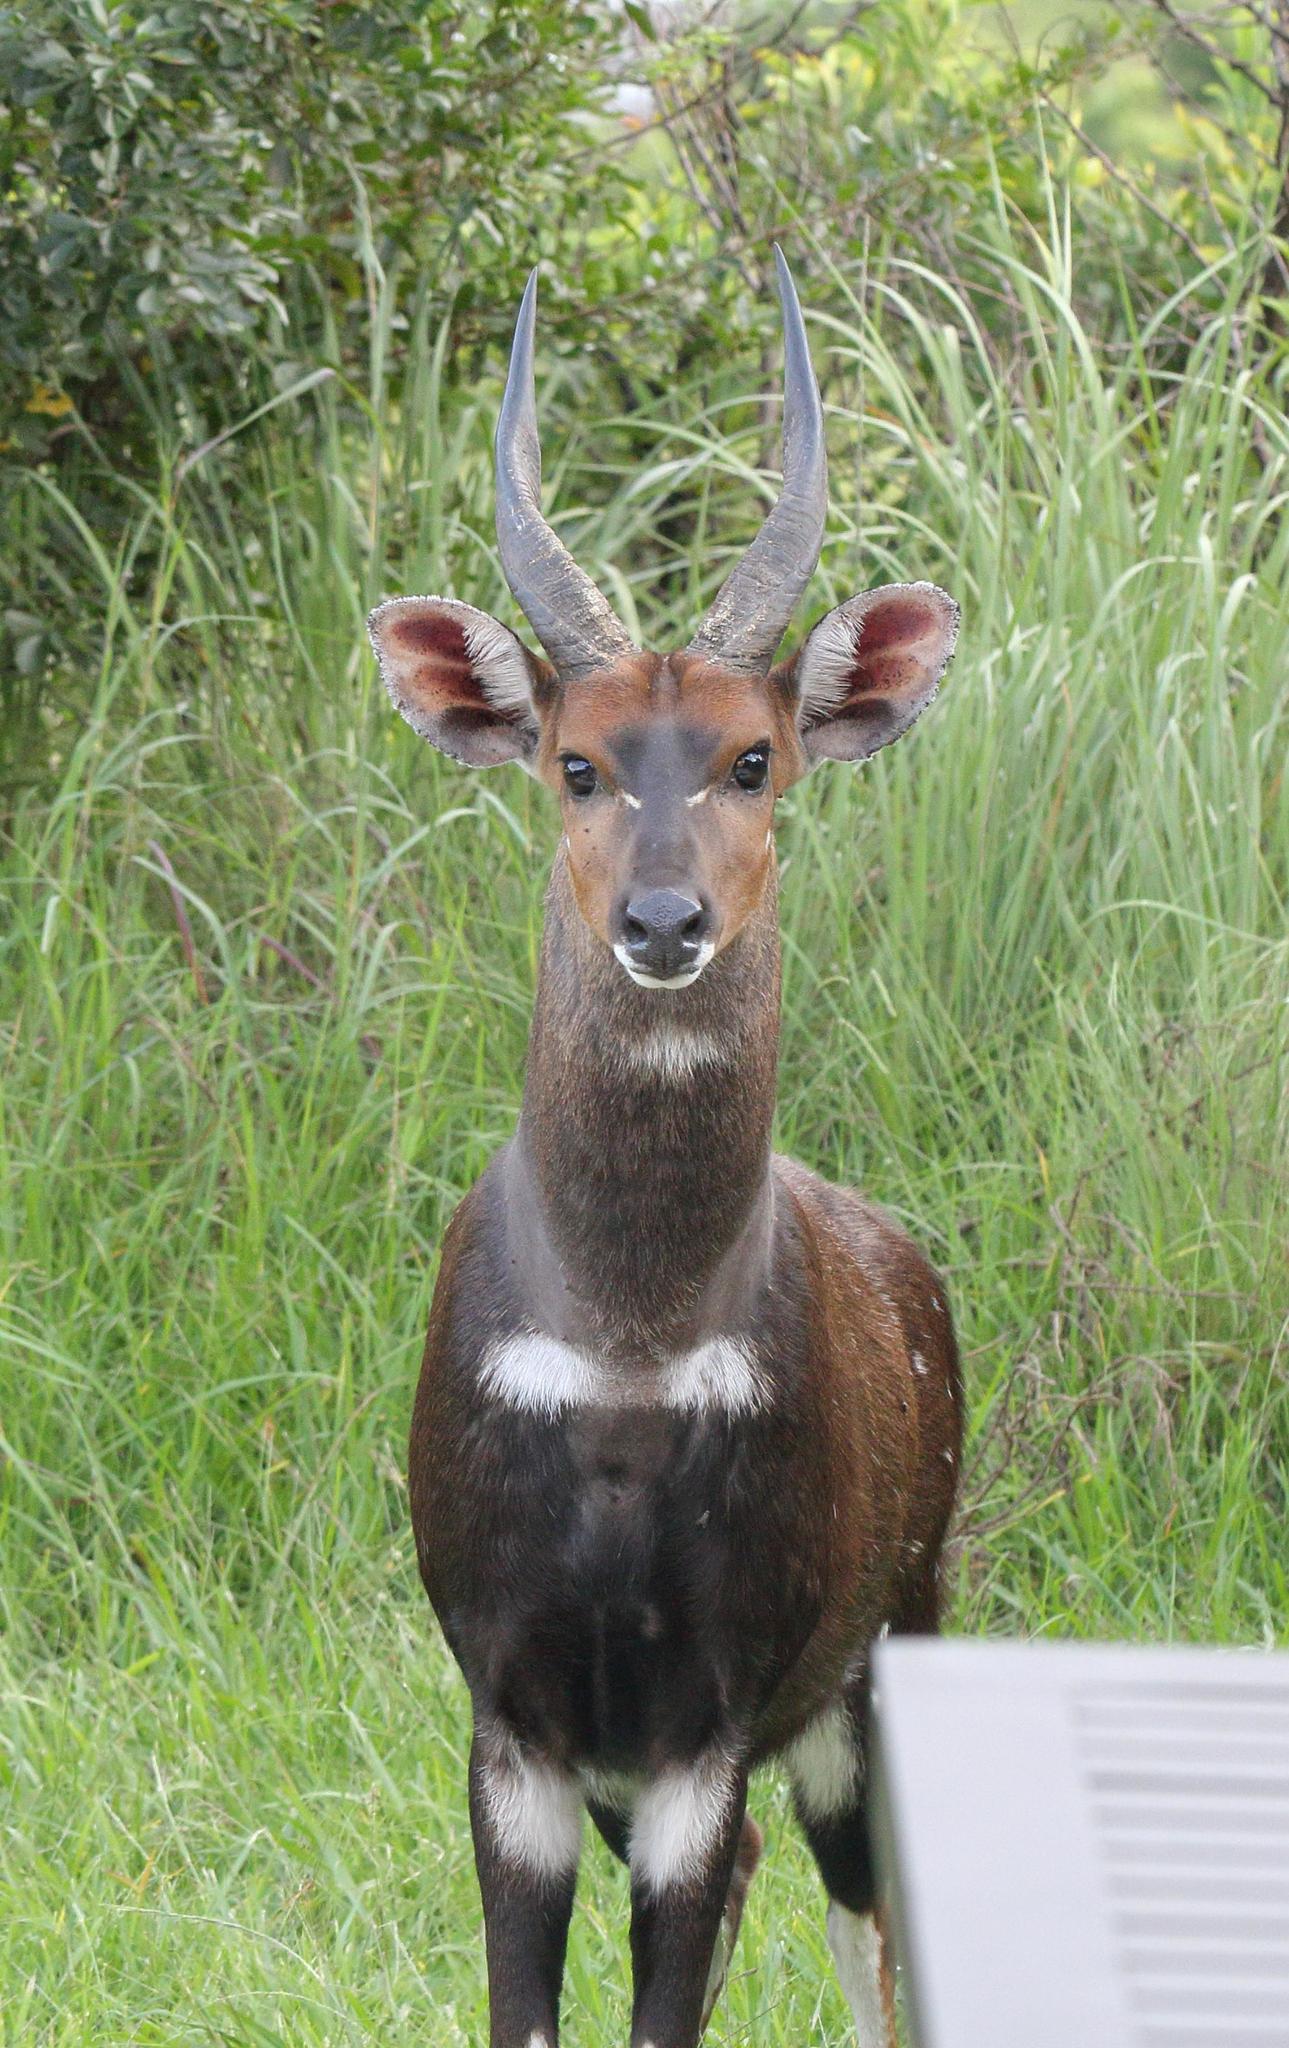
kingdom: Animalia
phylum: Chordata
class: Mammalia
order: Artiodactyla
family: Bovidae
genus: Tragelaphus
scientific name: Tragelaphus scriptus
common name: Bushbuck
